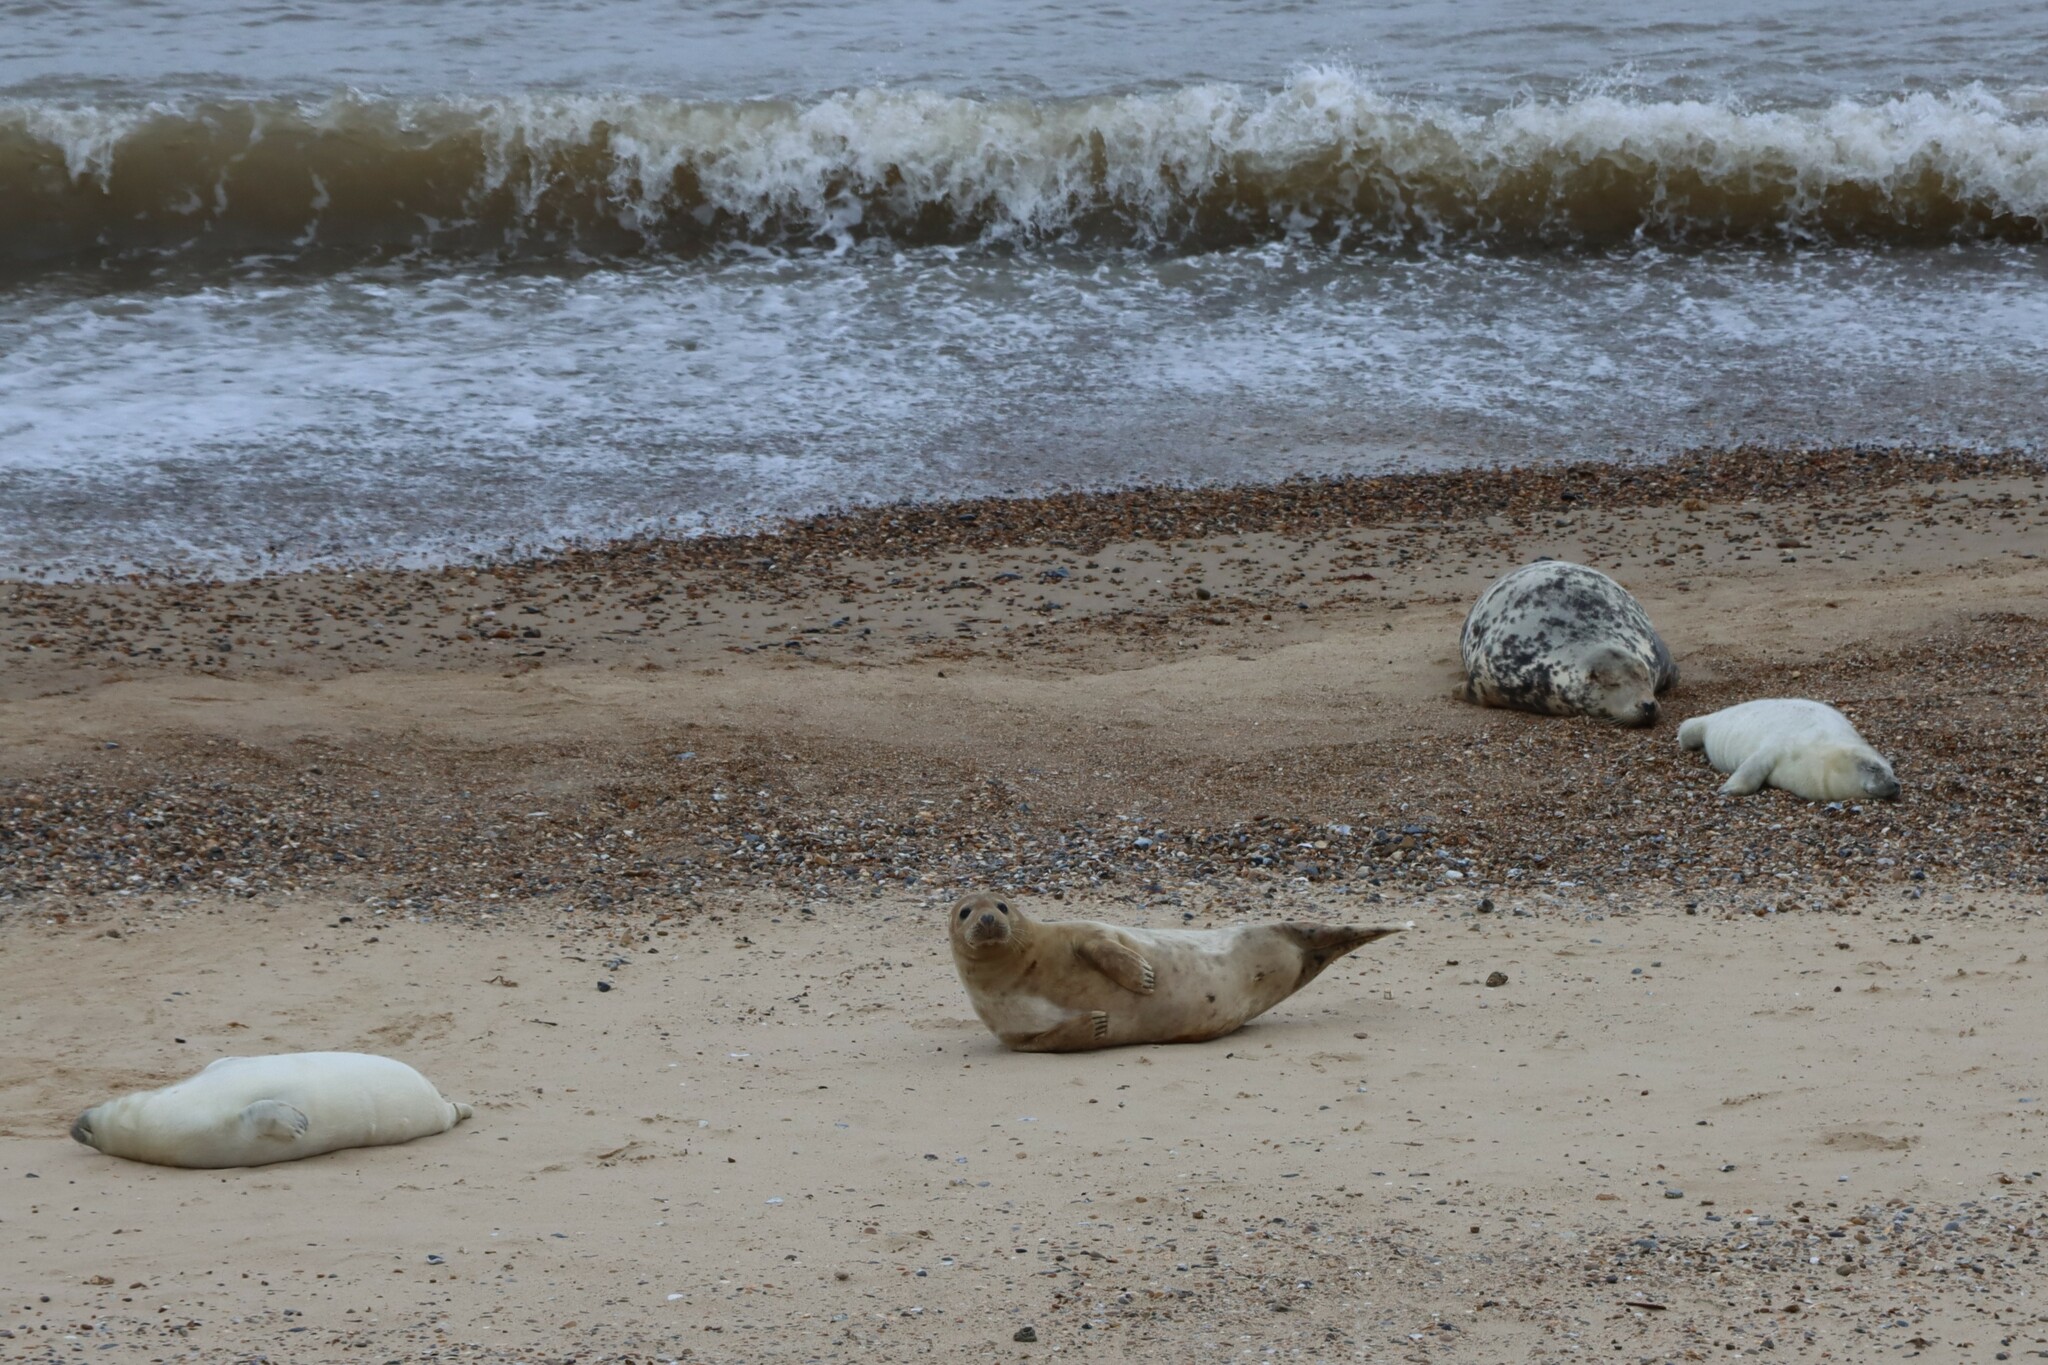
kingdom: Animalia
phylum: Chordata
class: Mammalia
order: Carnivora
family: Phocidae
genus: Halichoerus
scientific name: Halichoerus grypus
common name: Grey seal
